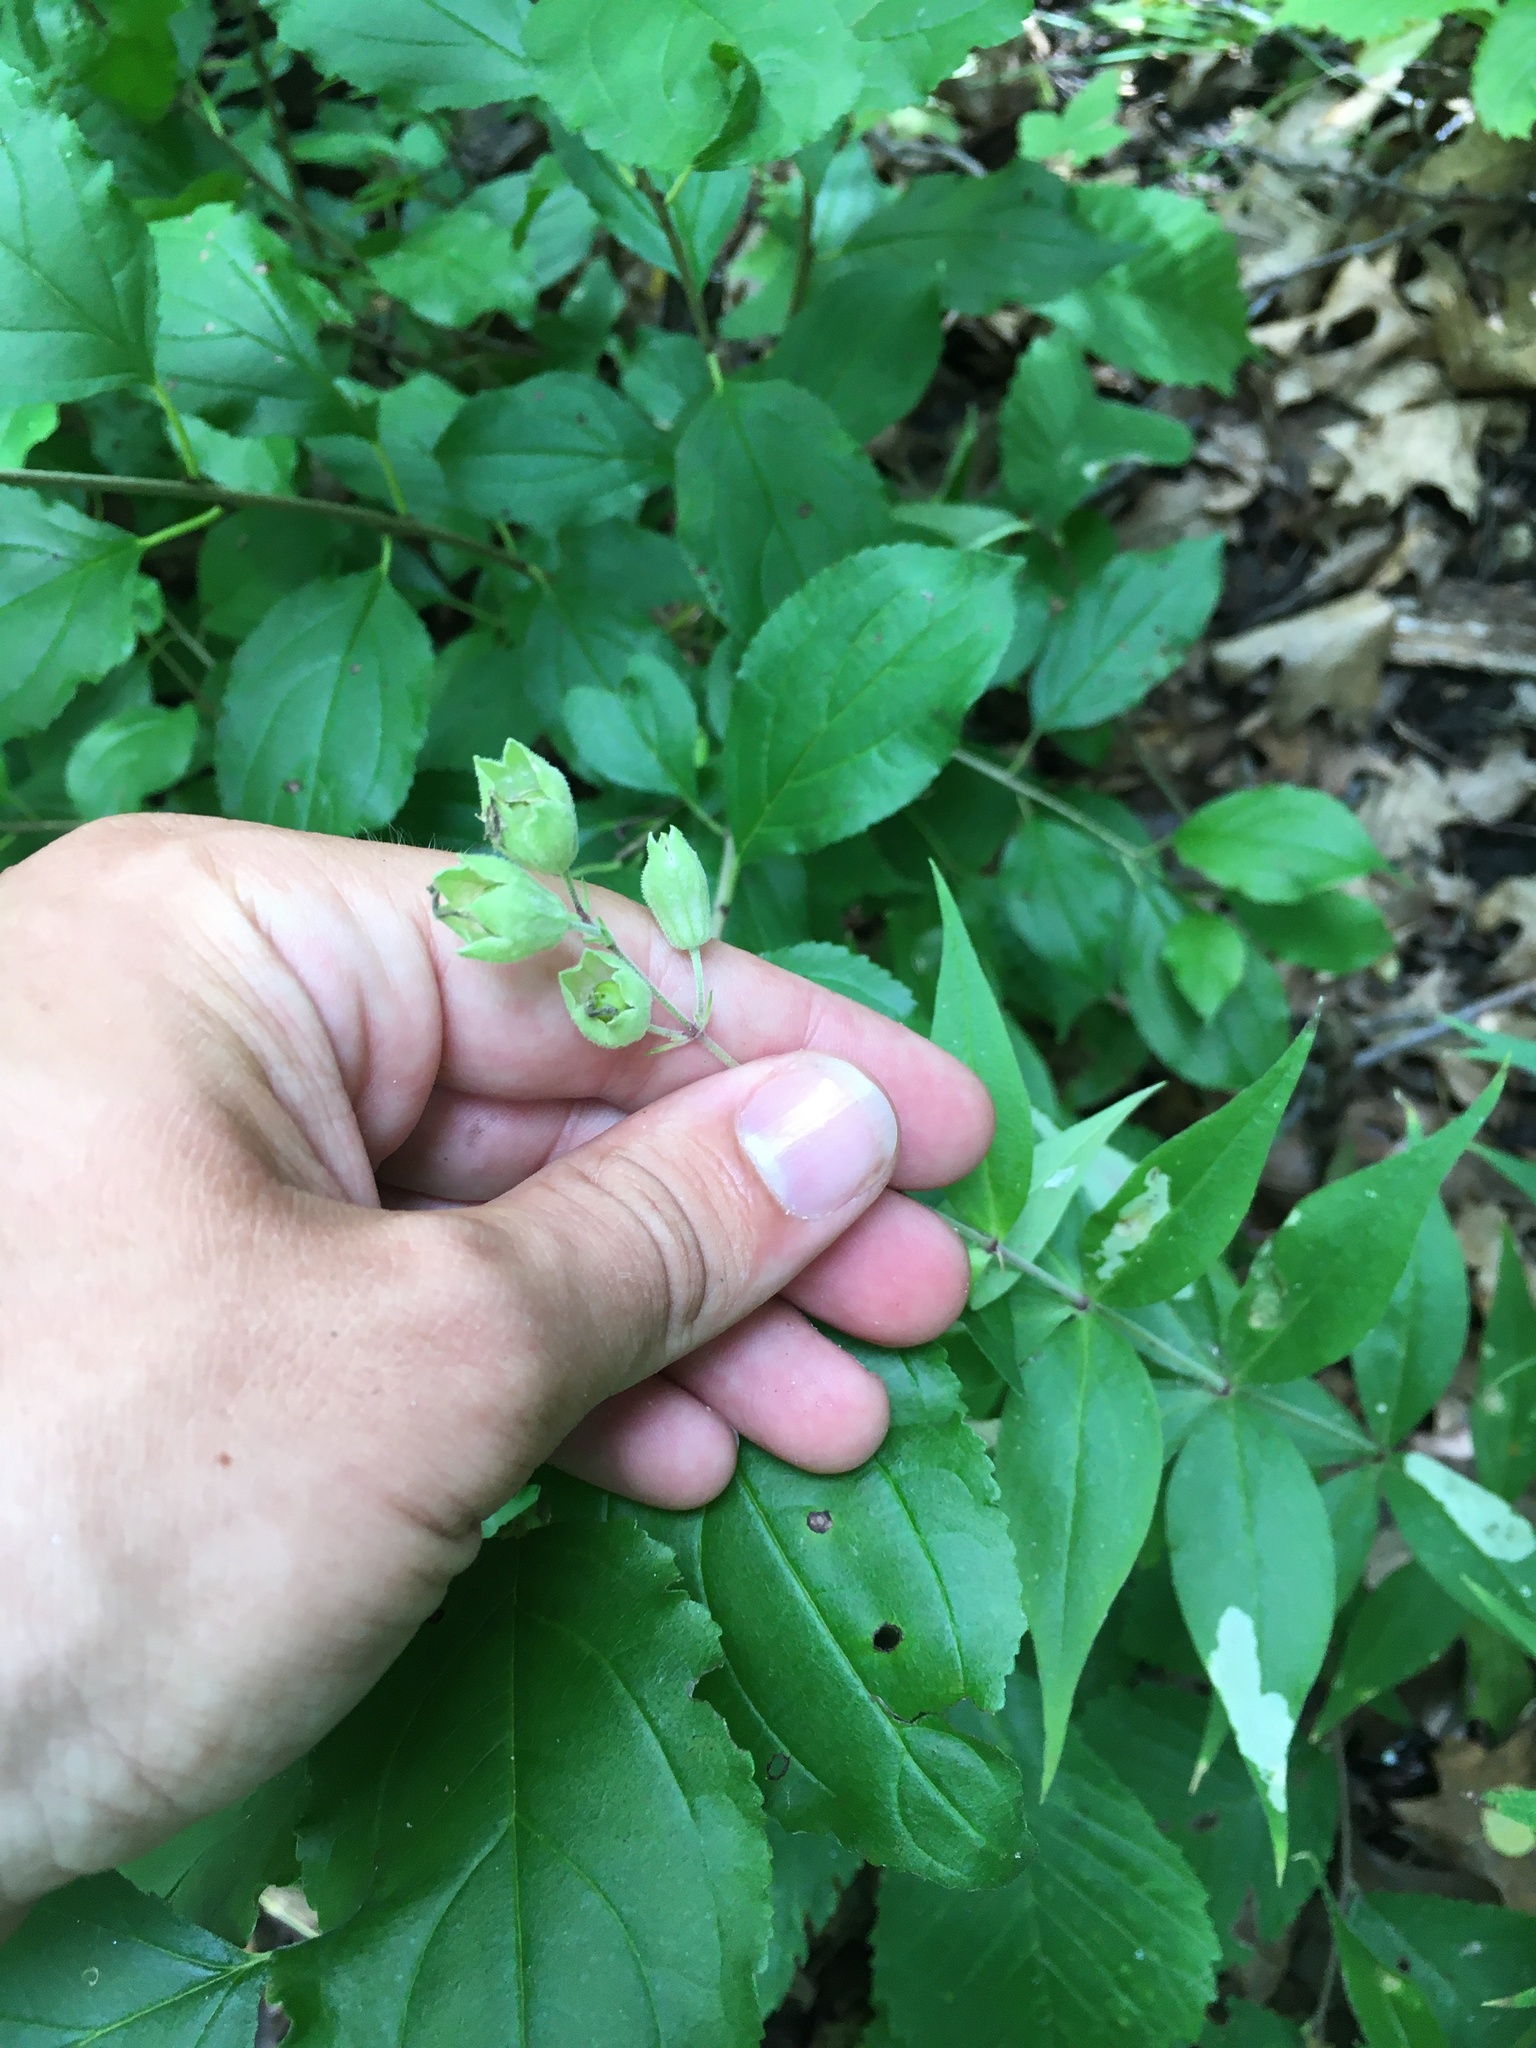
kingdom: Plantae
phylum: Tracheophyta
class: Magnoliopsida
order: Caryophyllales
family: Caryophyllaceae
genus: Silene
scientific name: Silene stellata
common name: Starry campion
